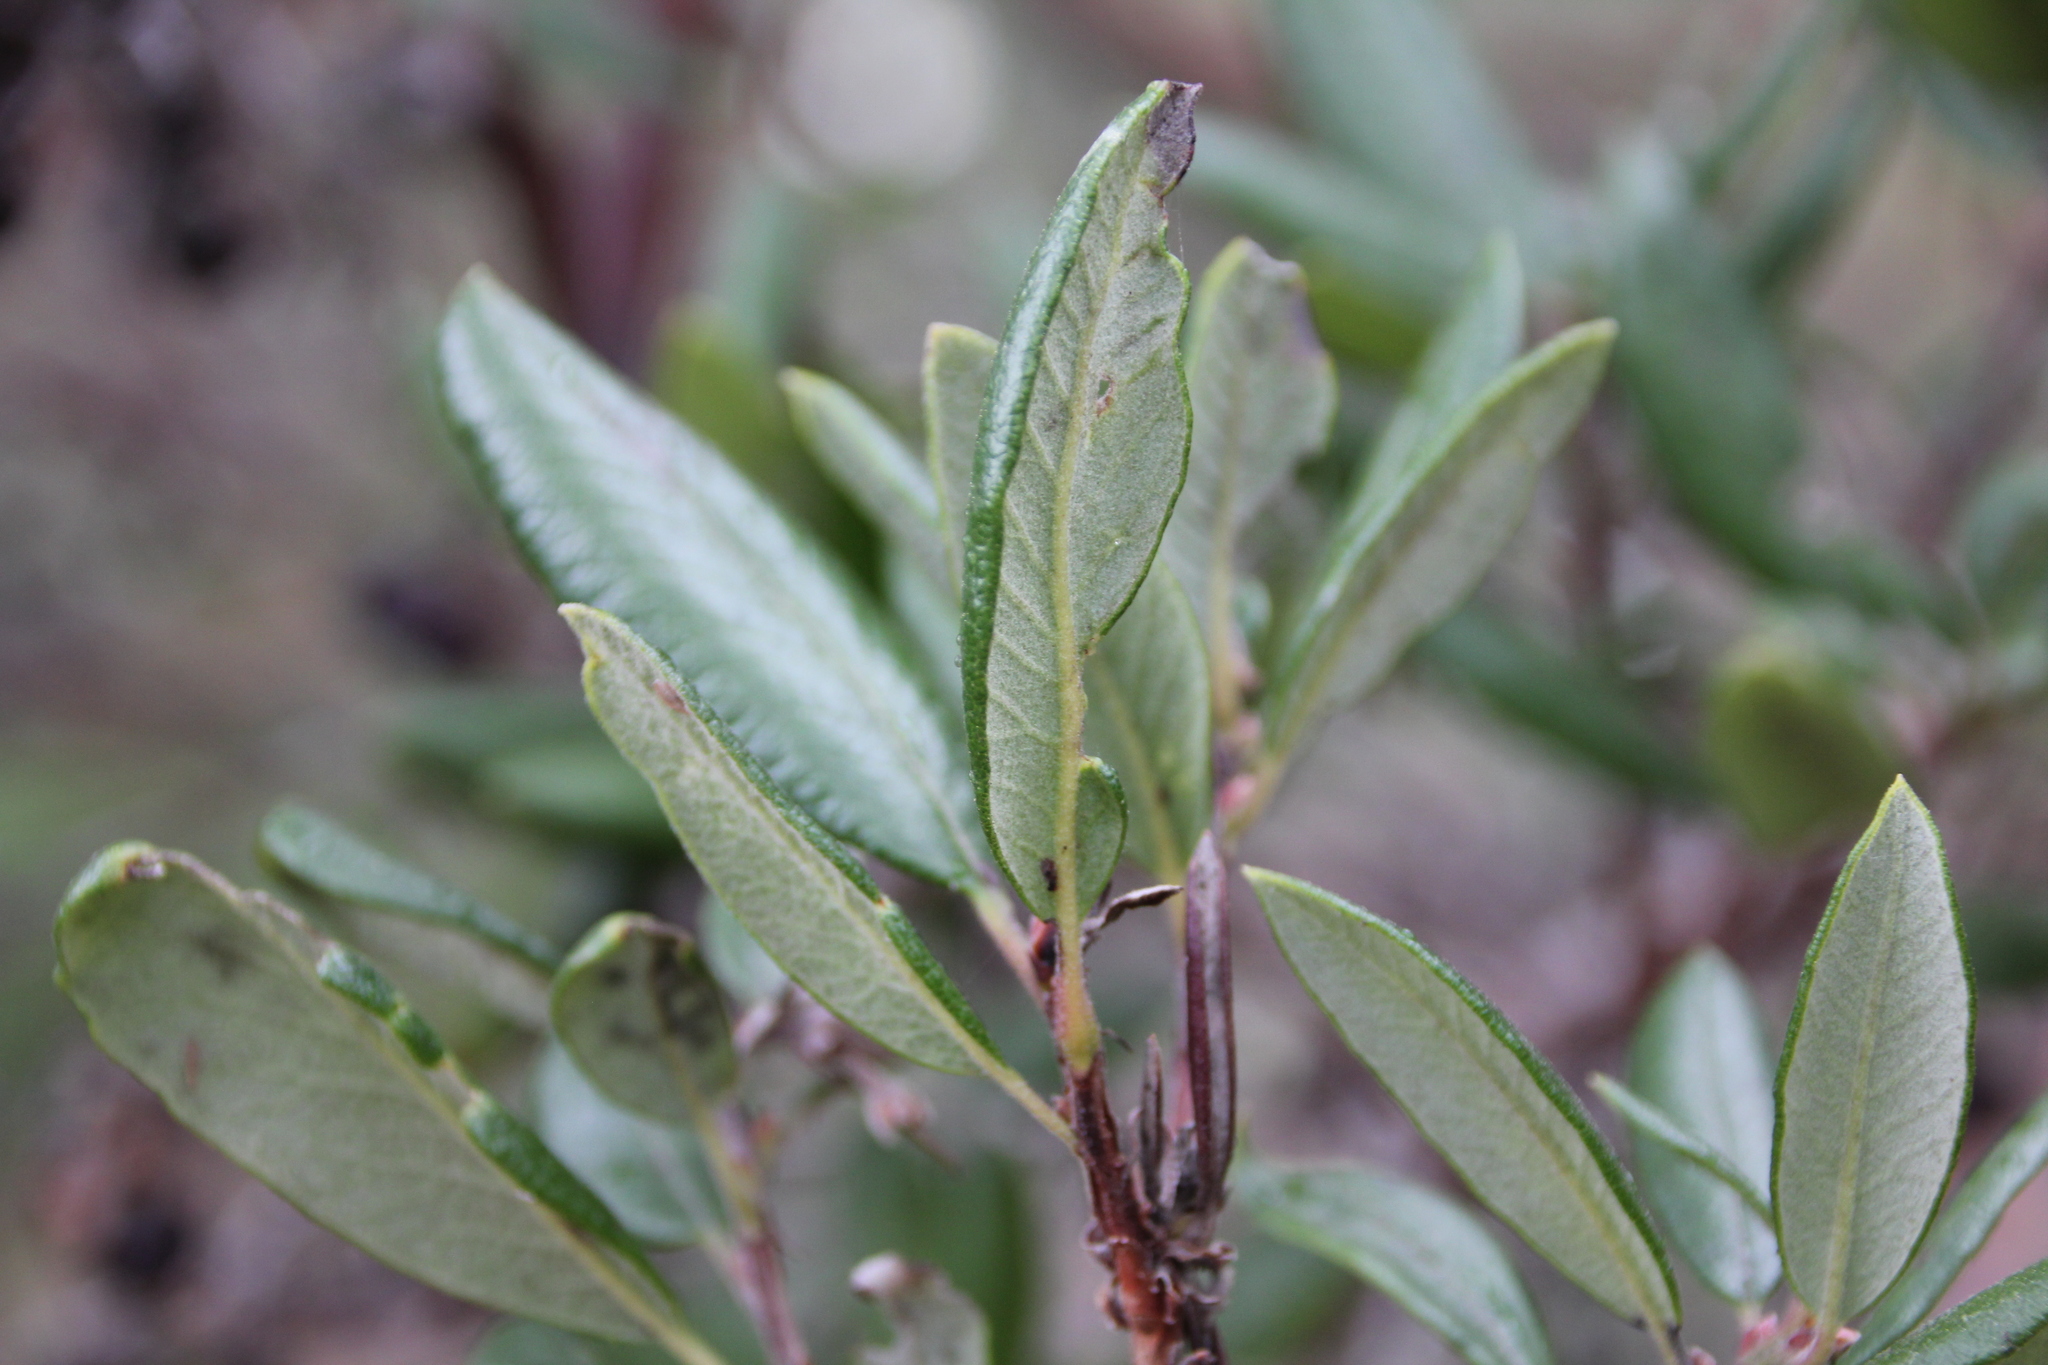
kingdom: Plantae
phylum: Tracheophyta
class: Magnoliopsida
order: Ericales
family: Ericaceae
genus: Arctostaphylos
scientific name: Arctostaphylos bicolor
